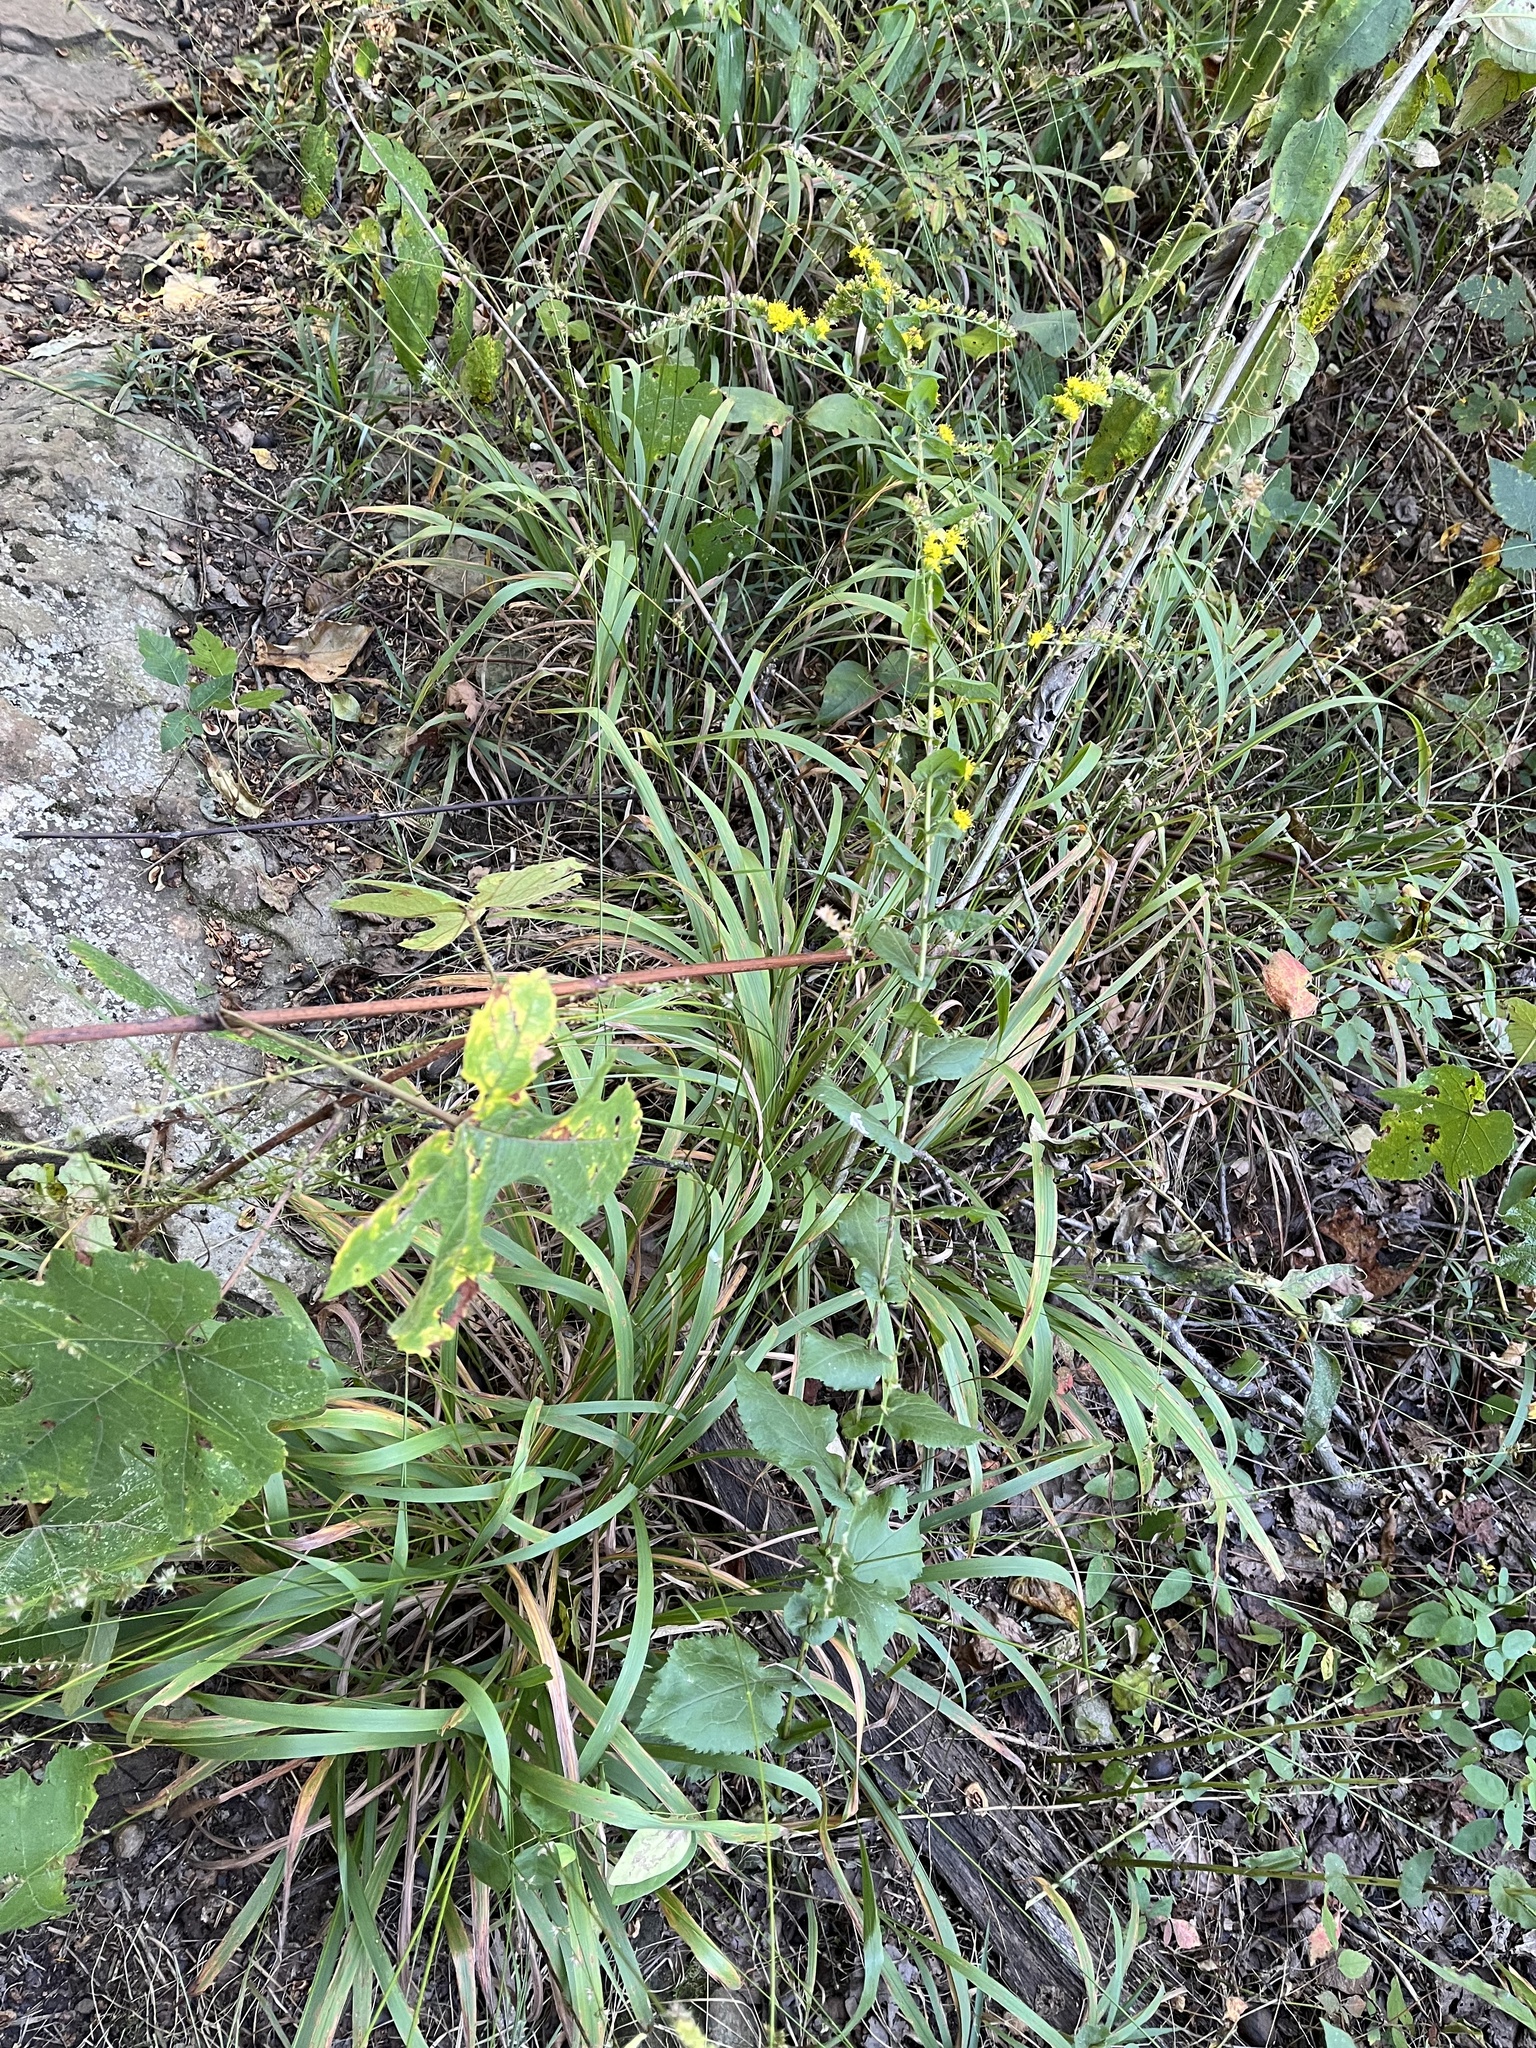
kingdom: Plantae
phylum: Tracheophyta
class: Magnoliopsida
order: Asterales
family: Asteraceae
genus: Solidago
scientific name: Solidago auriculata
